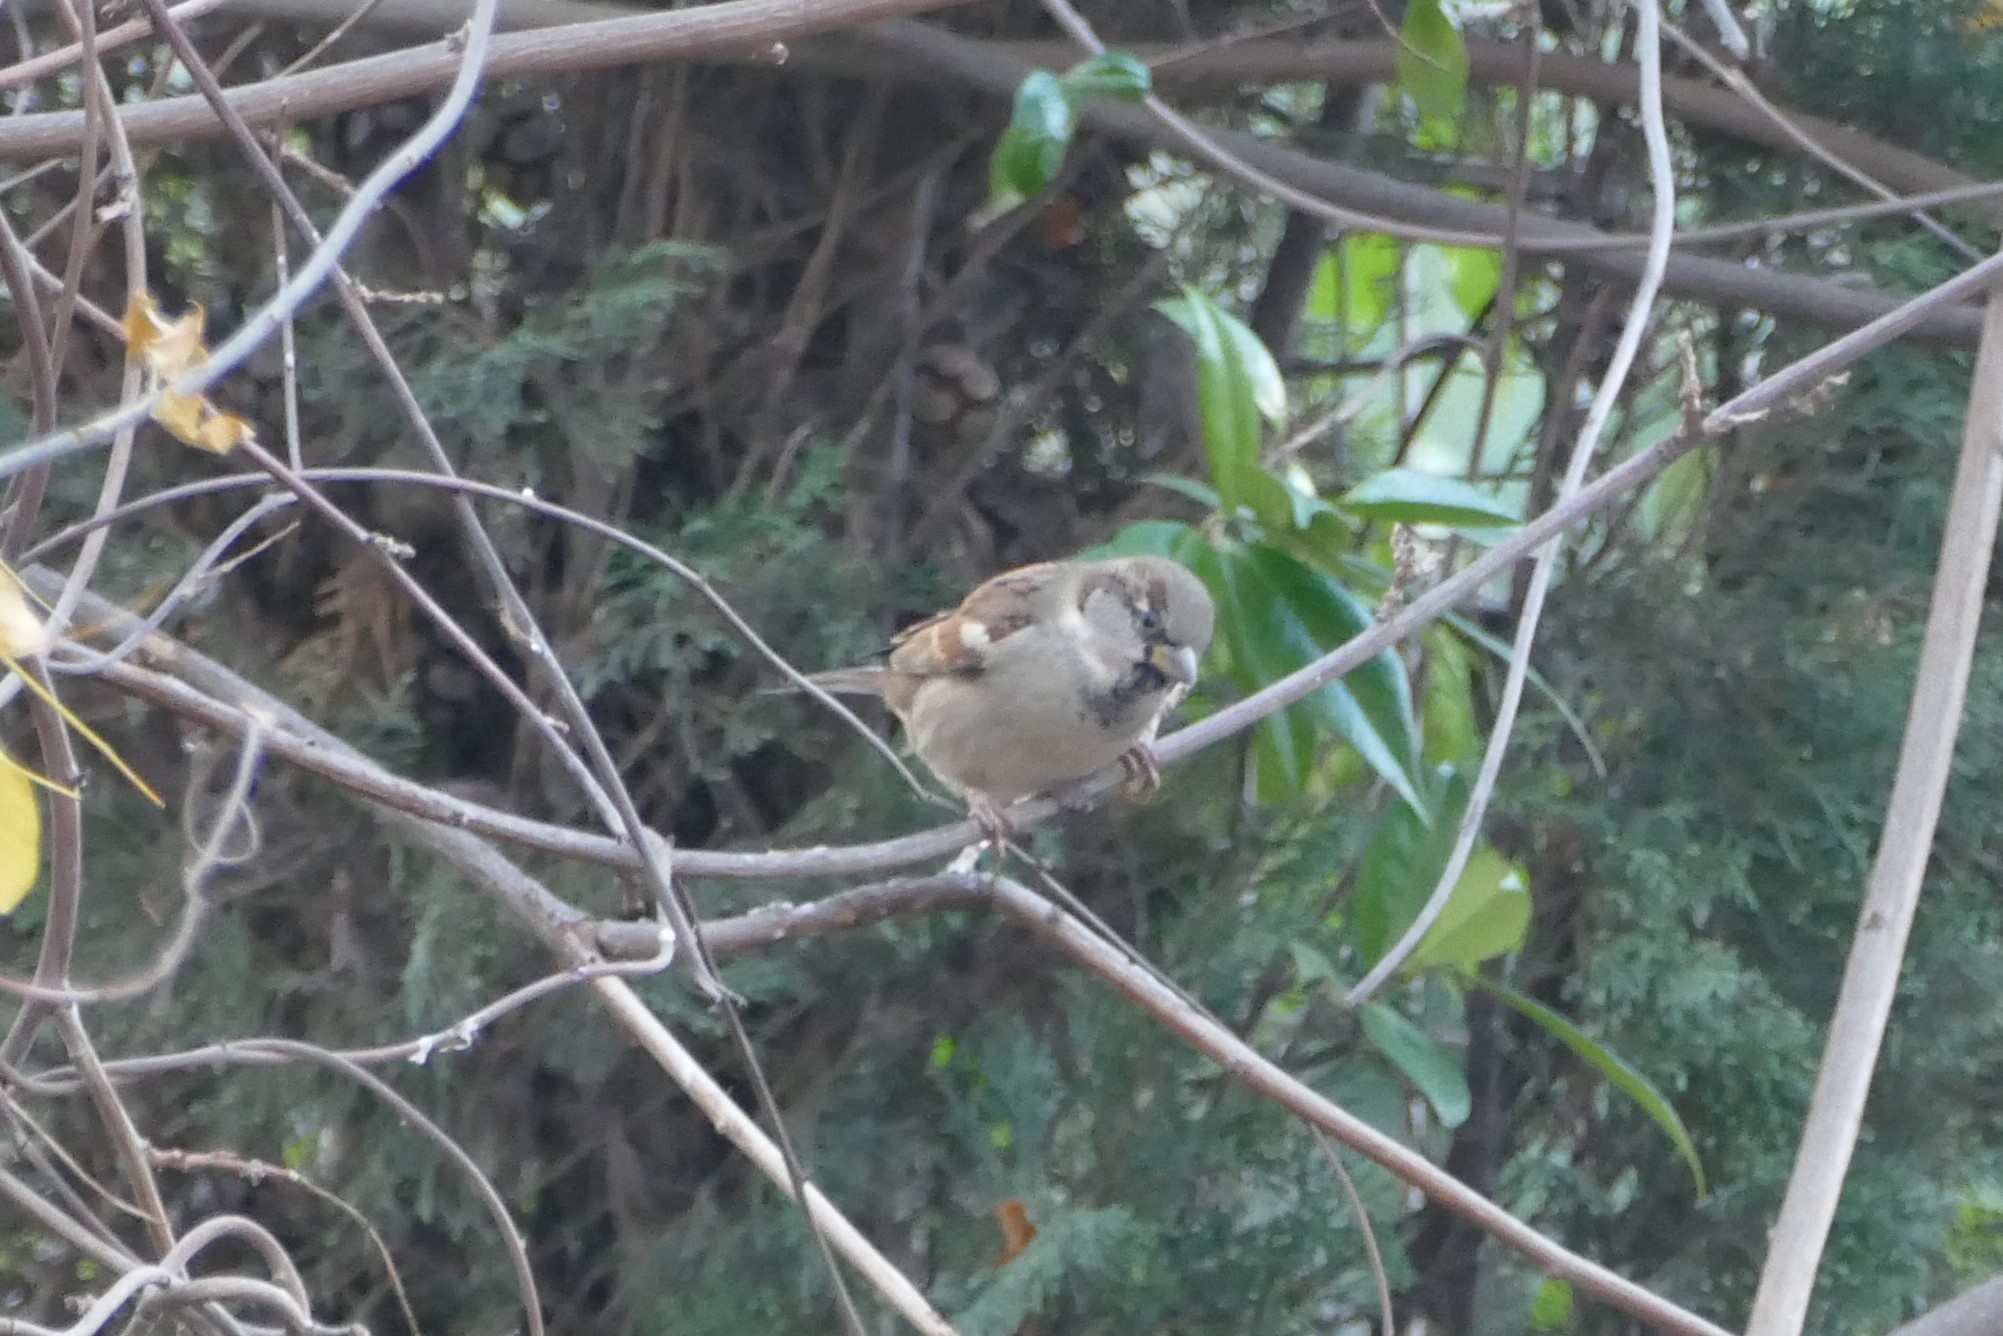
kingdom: Animalia
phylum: Chordata
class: Aves
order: Passeriformes
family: Passeridae
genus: Passer
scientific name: Passer domesticus
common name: House sparrow
